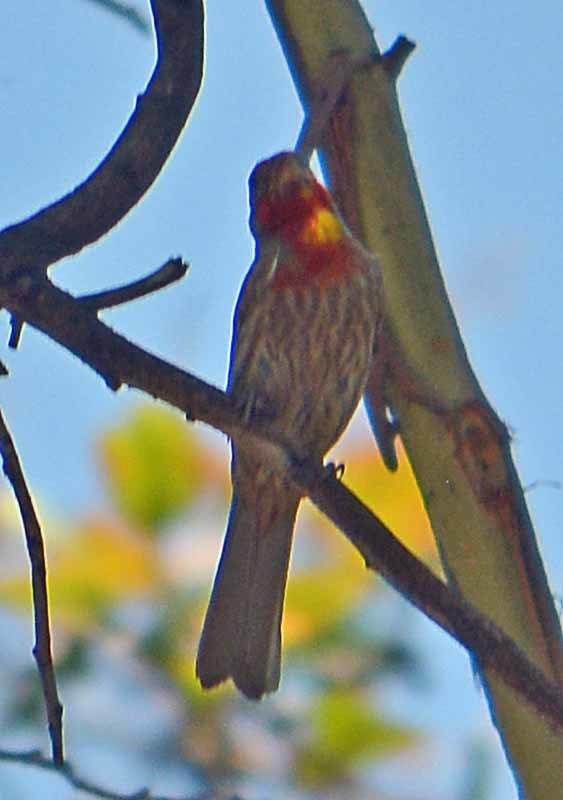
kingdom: Animalia
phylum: Chordata
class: Aves
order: Passeriformes
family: Fringillidae
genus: Haemorhous
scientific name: Haemorhous mexicanus
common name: House finch
